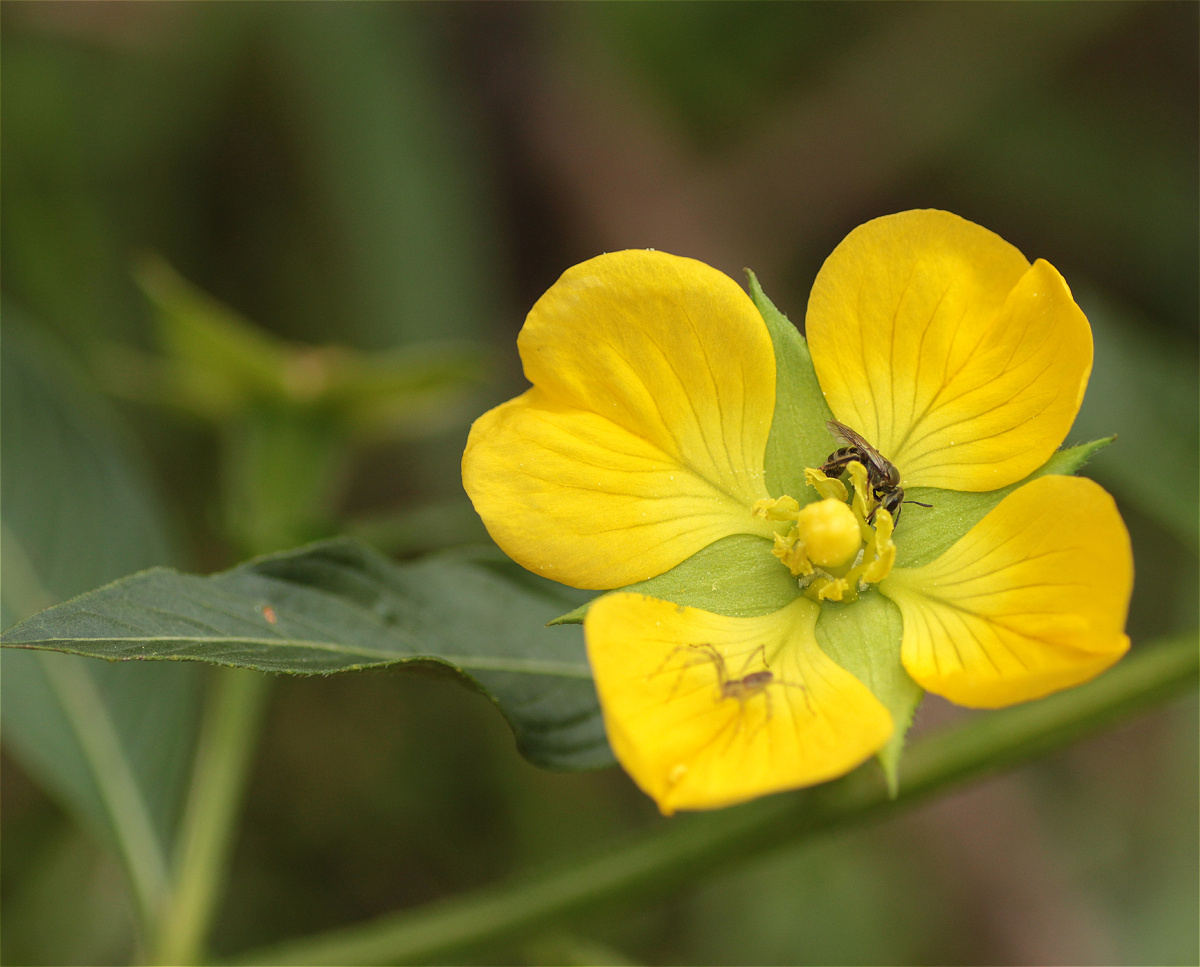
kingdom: Plantae
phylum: Tracheophyta
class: Magnoliopsida
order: Myrtales
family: Onagraceae
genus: Ludwigia
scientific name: Ludwigia peruviana
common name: Peruvian primrose-willow
